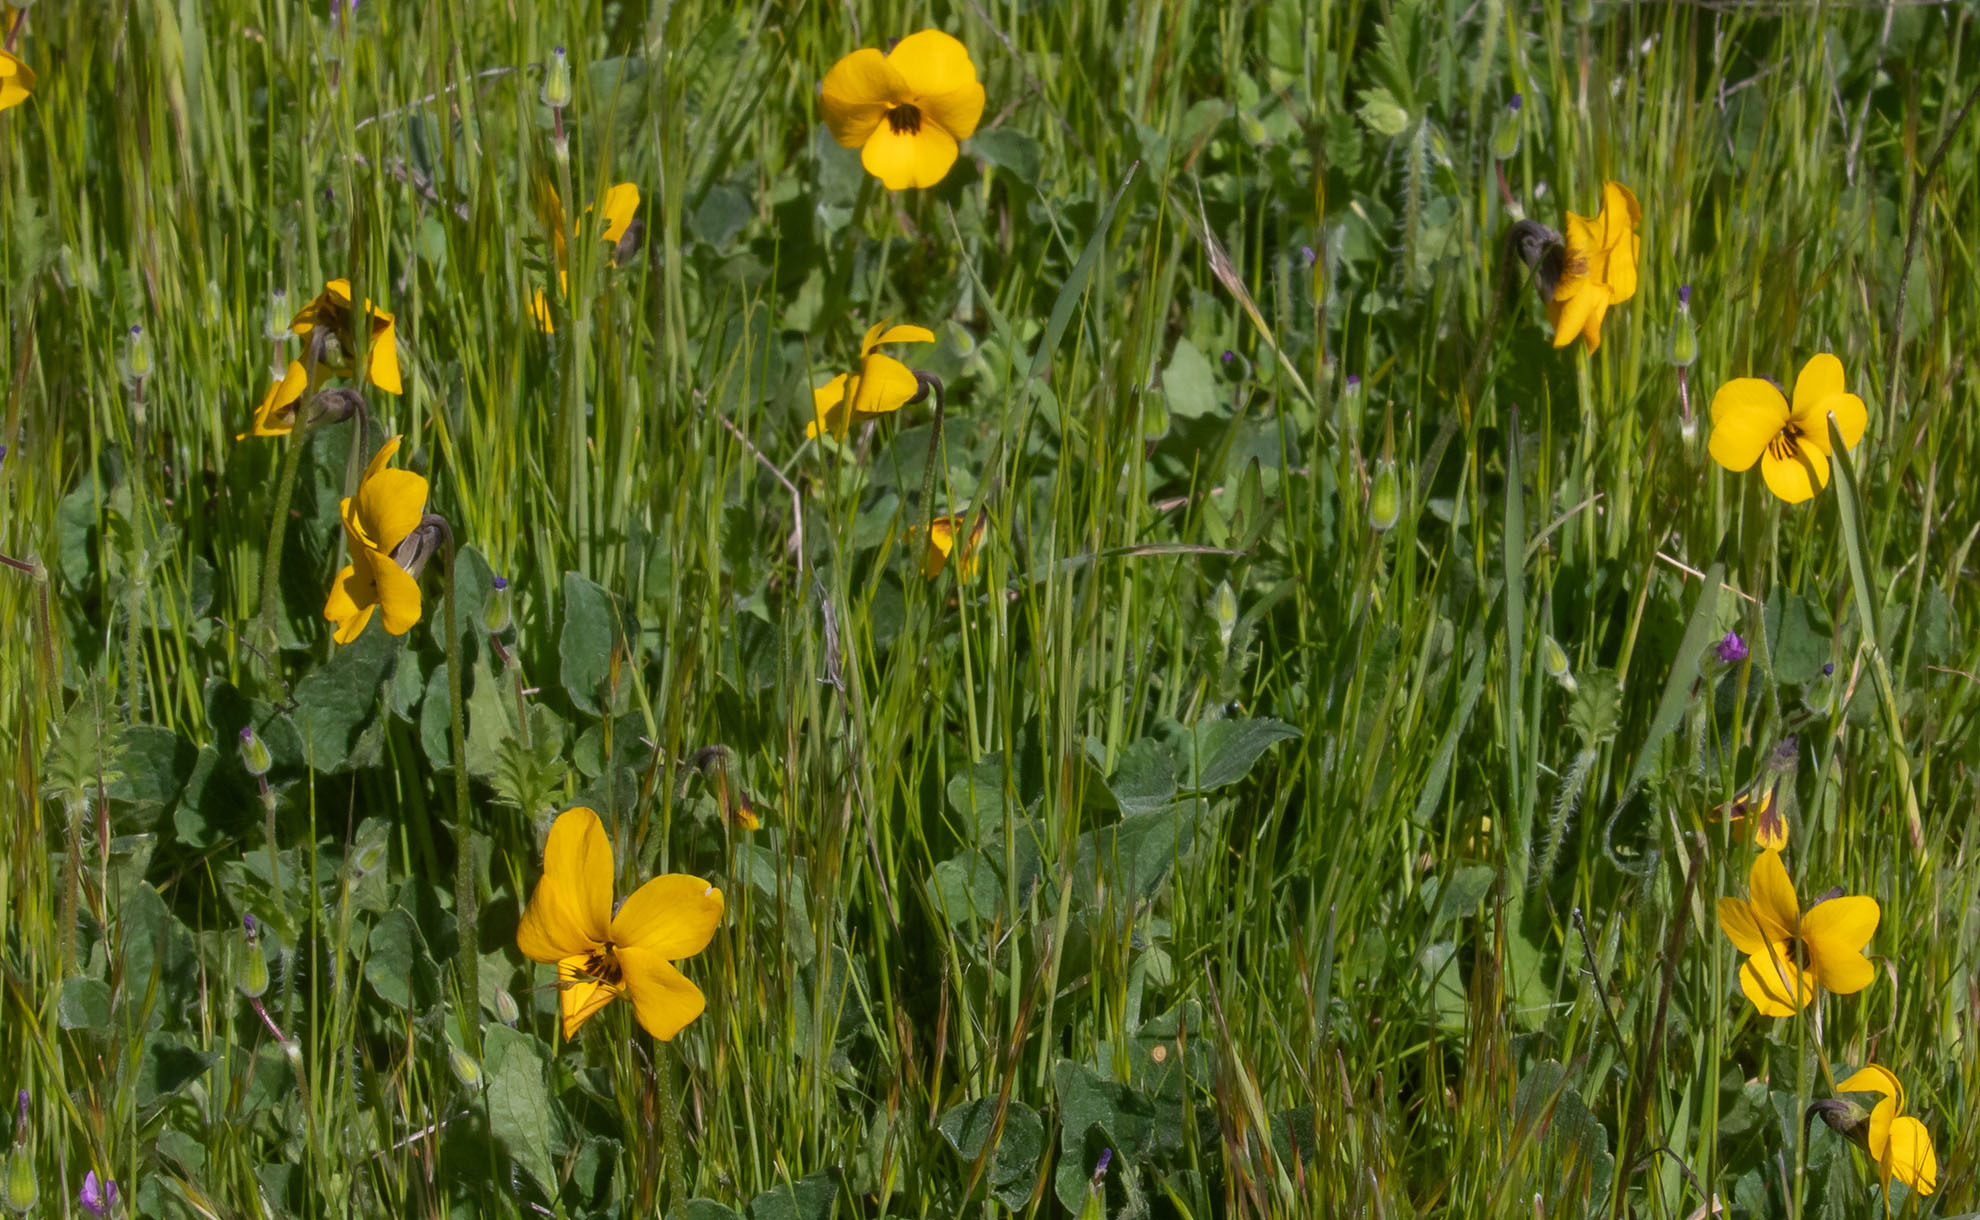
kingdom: Plantae
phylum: Tracheophyta
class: Magnoliopsida
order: Malpighiales
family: Violaceae
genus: Viola
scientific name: Viola pedunculata
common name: California golden violet
